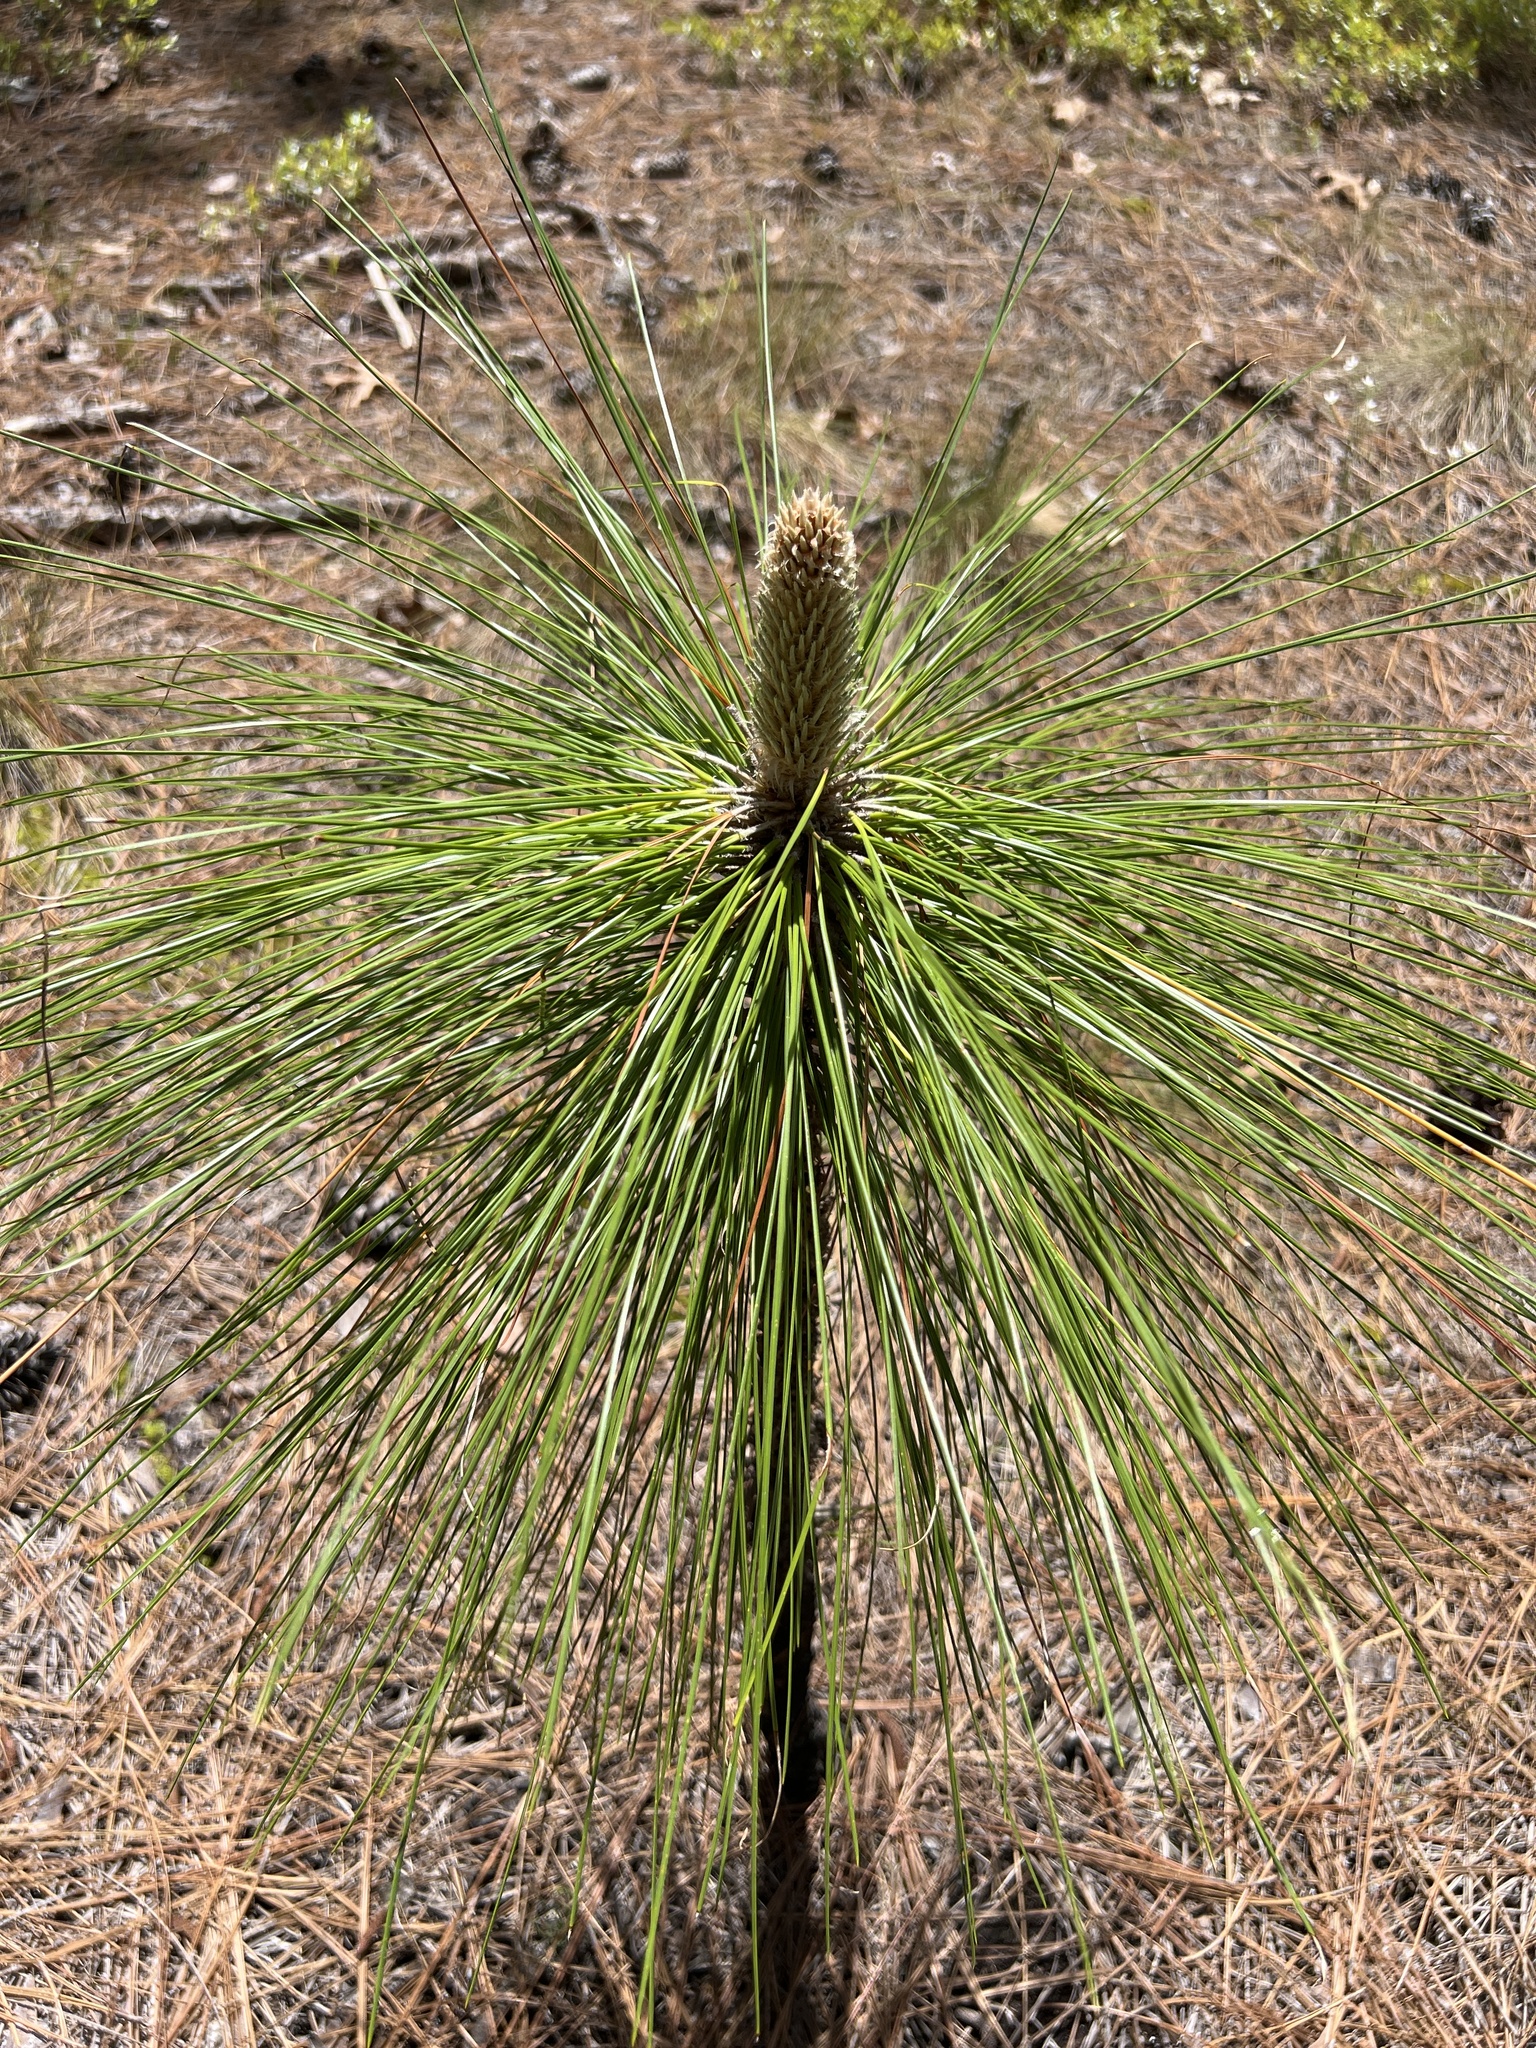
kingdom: Plantae
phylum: Tracheophyta
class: Pinopsida
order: Pinales
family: Pinaceae
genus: Pinus
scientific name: Pinus palustris
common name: Longleaf pine
